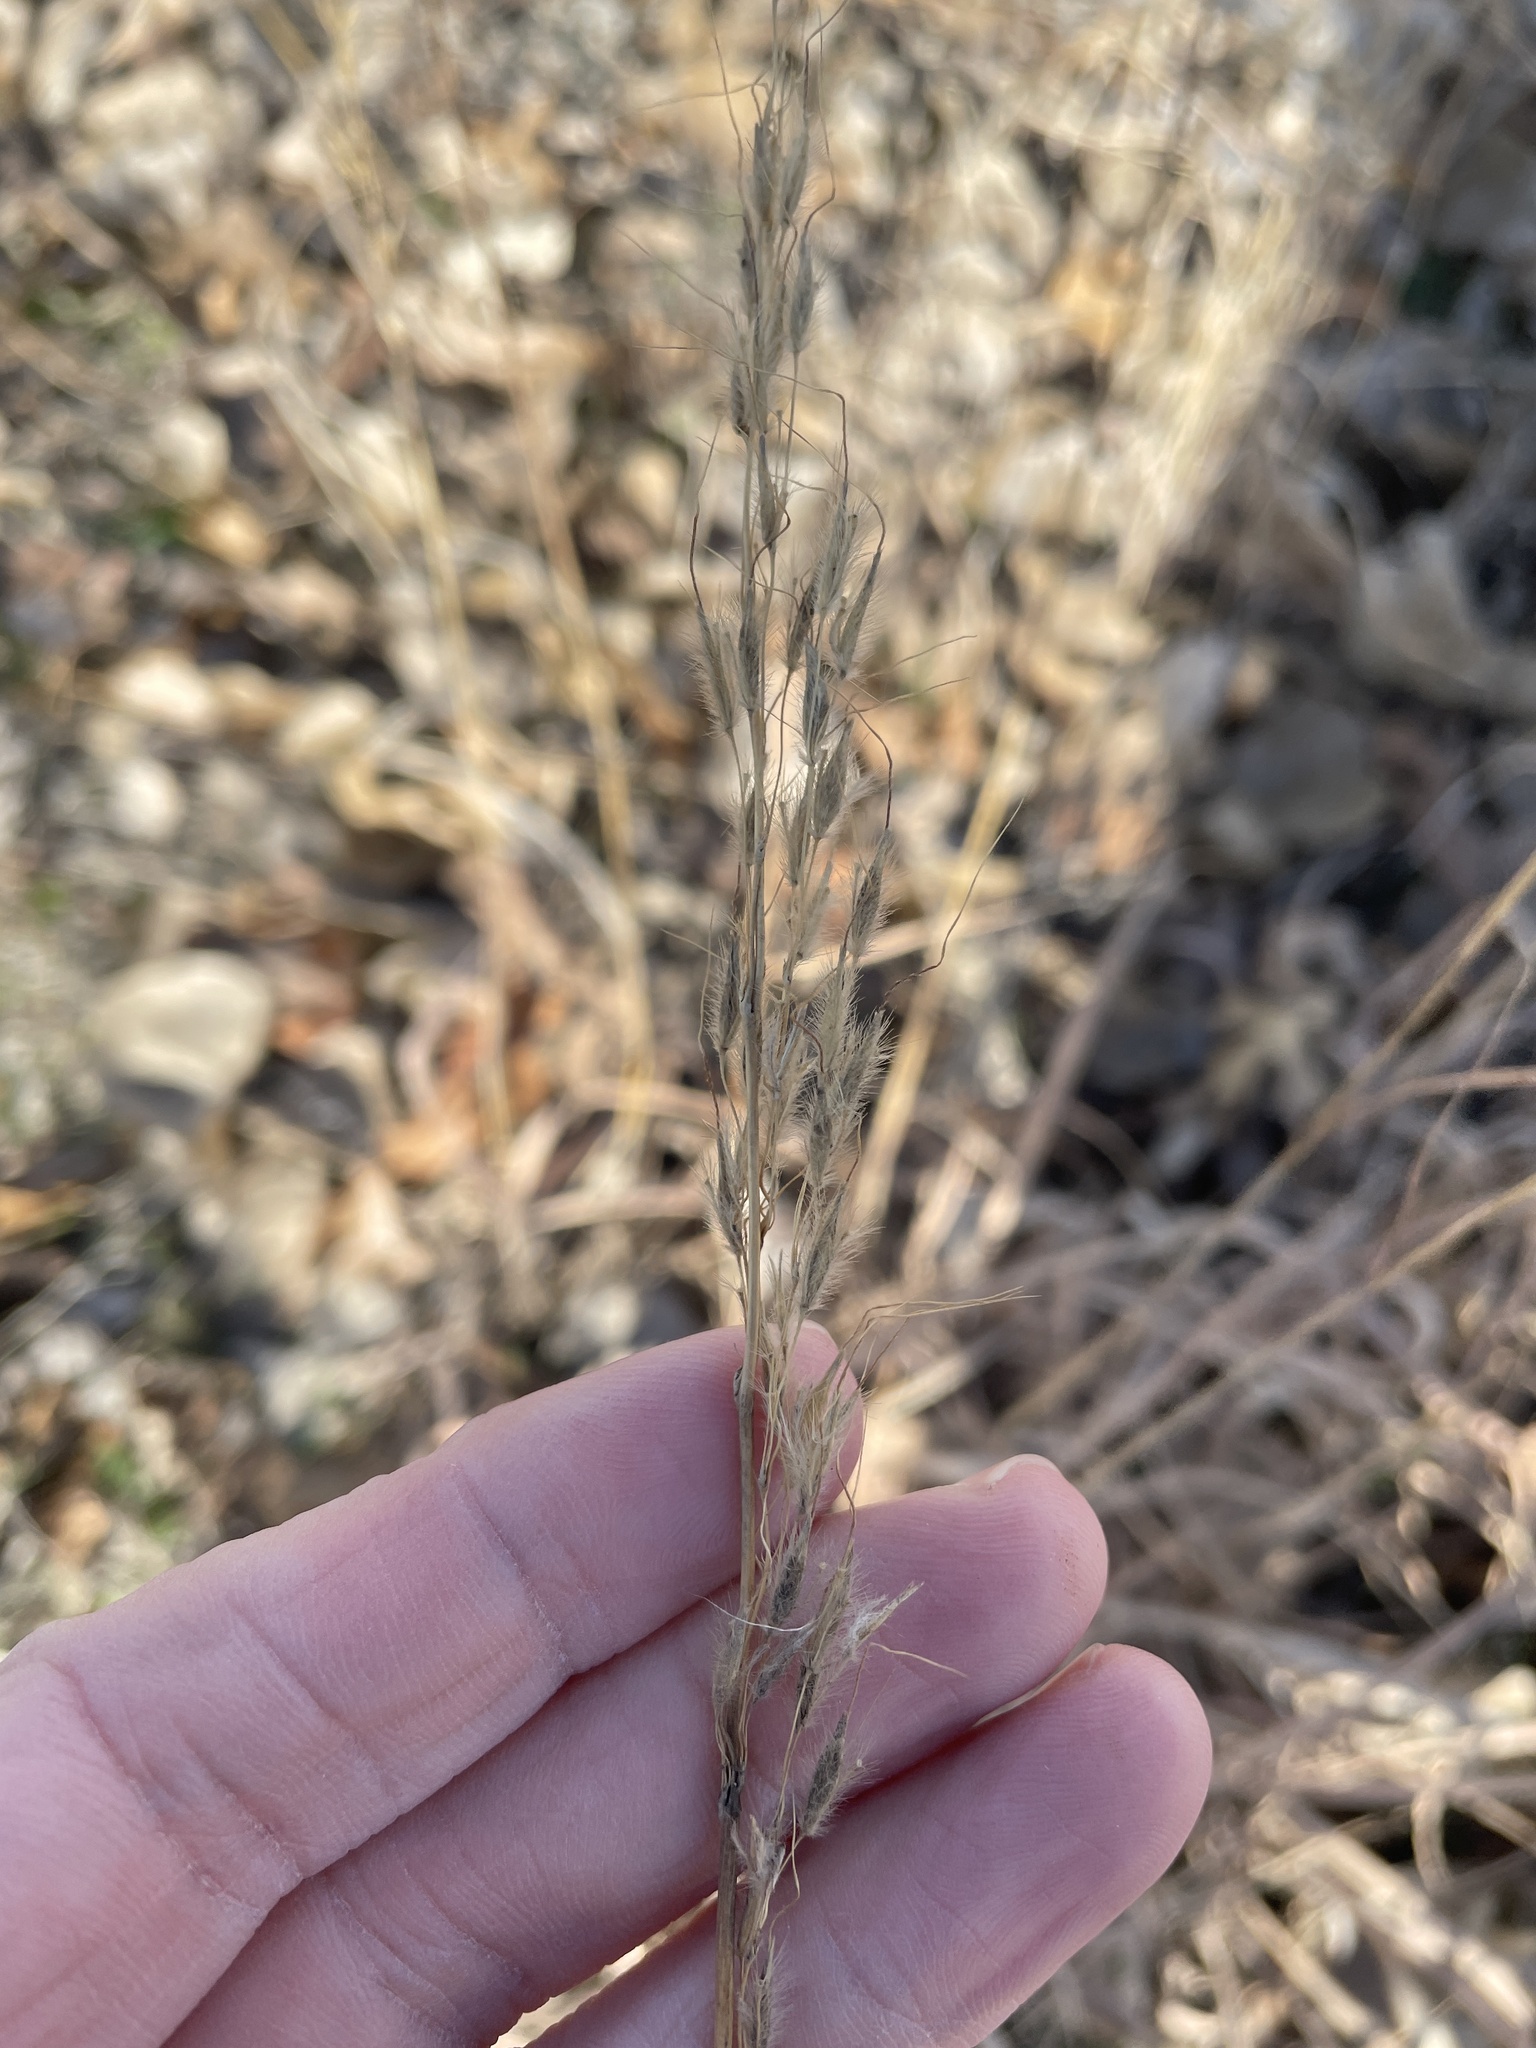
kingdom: Plantae
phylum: Tracheophyta
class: Liliopsida
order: Poales
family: Poaceae
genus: Sorghastrum
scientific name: Sorghastrum nutans
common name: Indian grass
